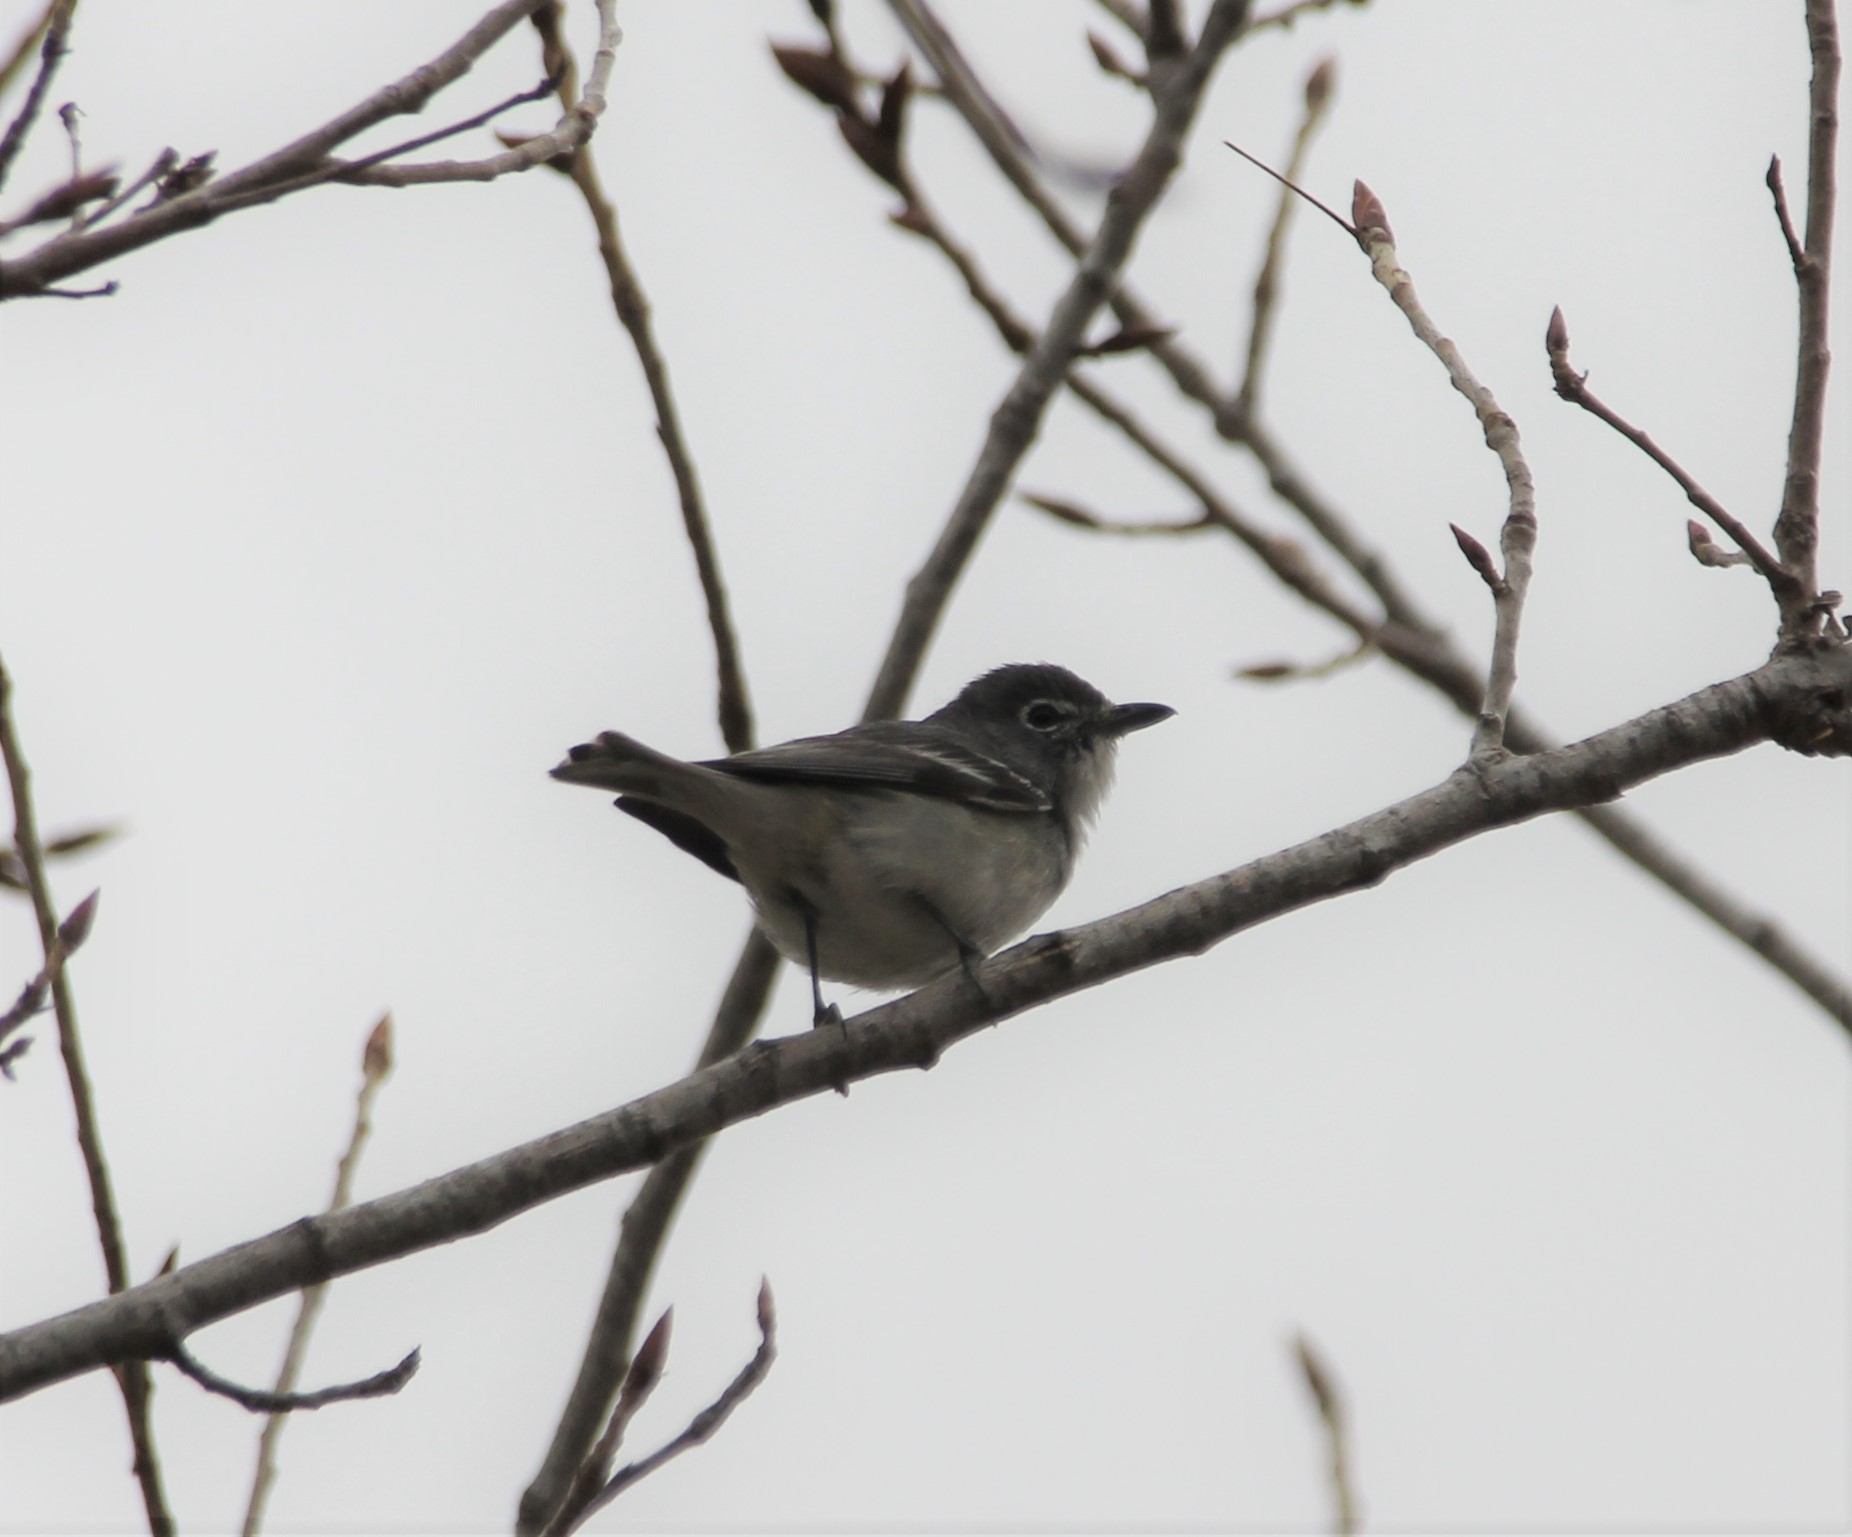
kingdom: Animalia
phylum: Chordata
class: Aves
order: Passeriformes
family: Vireonidae
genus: Vireo
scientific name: Vireo plumbeus
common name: Plumbeous vireo
